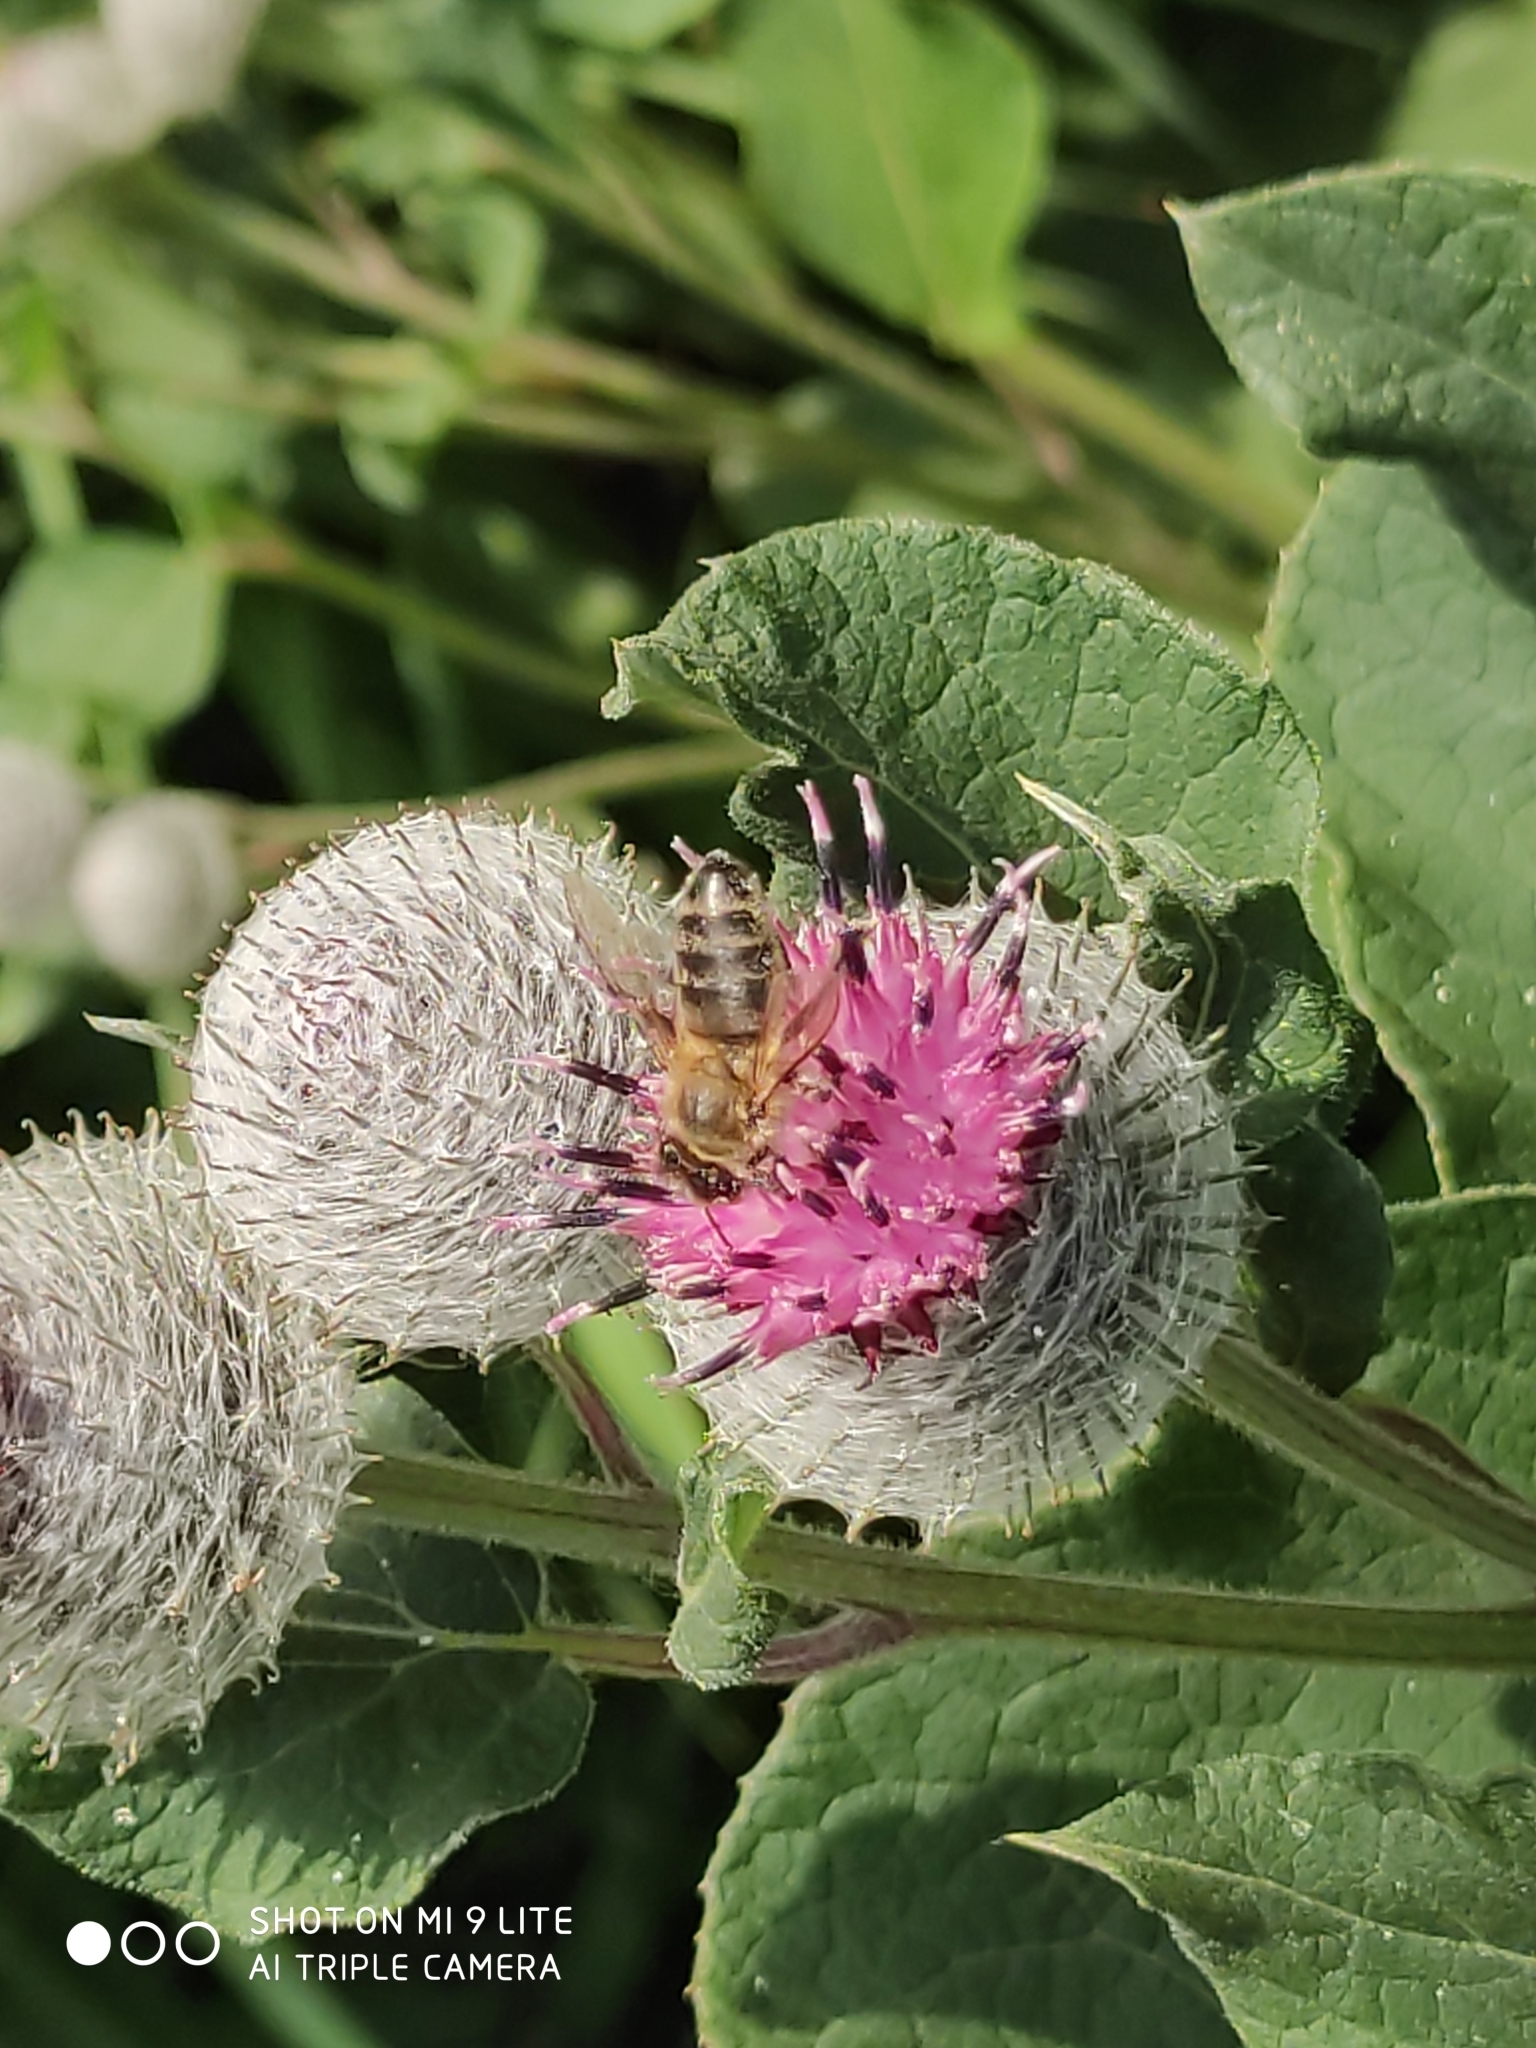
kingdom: Plantae
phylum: Tracheophyta
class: Magnoliopsida
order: Asterales
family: Asteraceae
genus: Arctium
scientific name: Arctium tomentosum
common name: Woolly burdock
